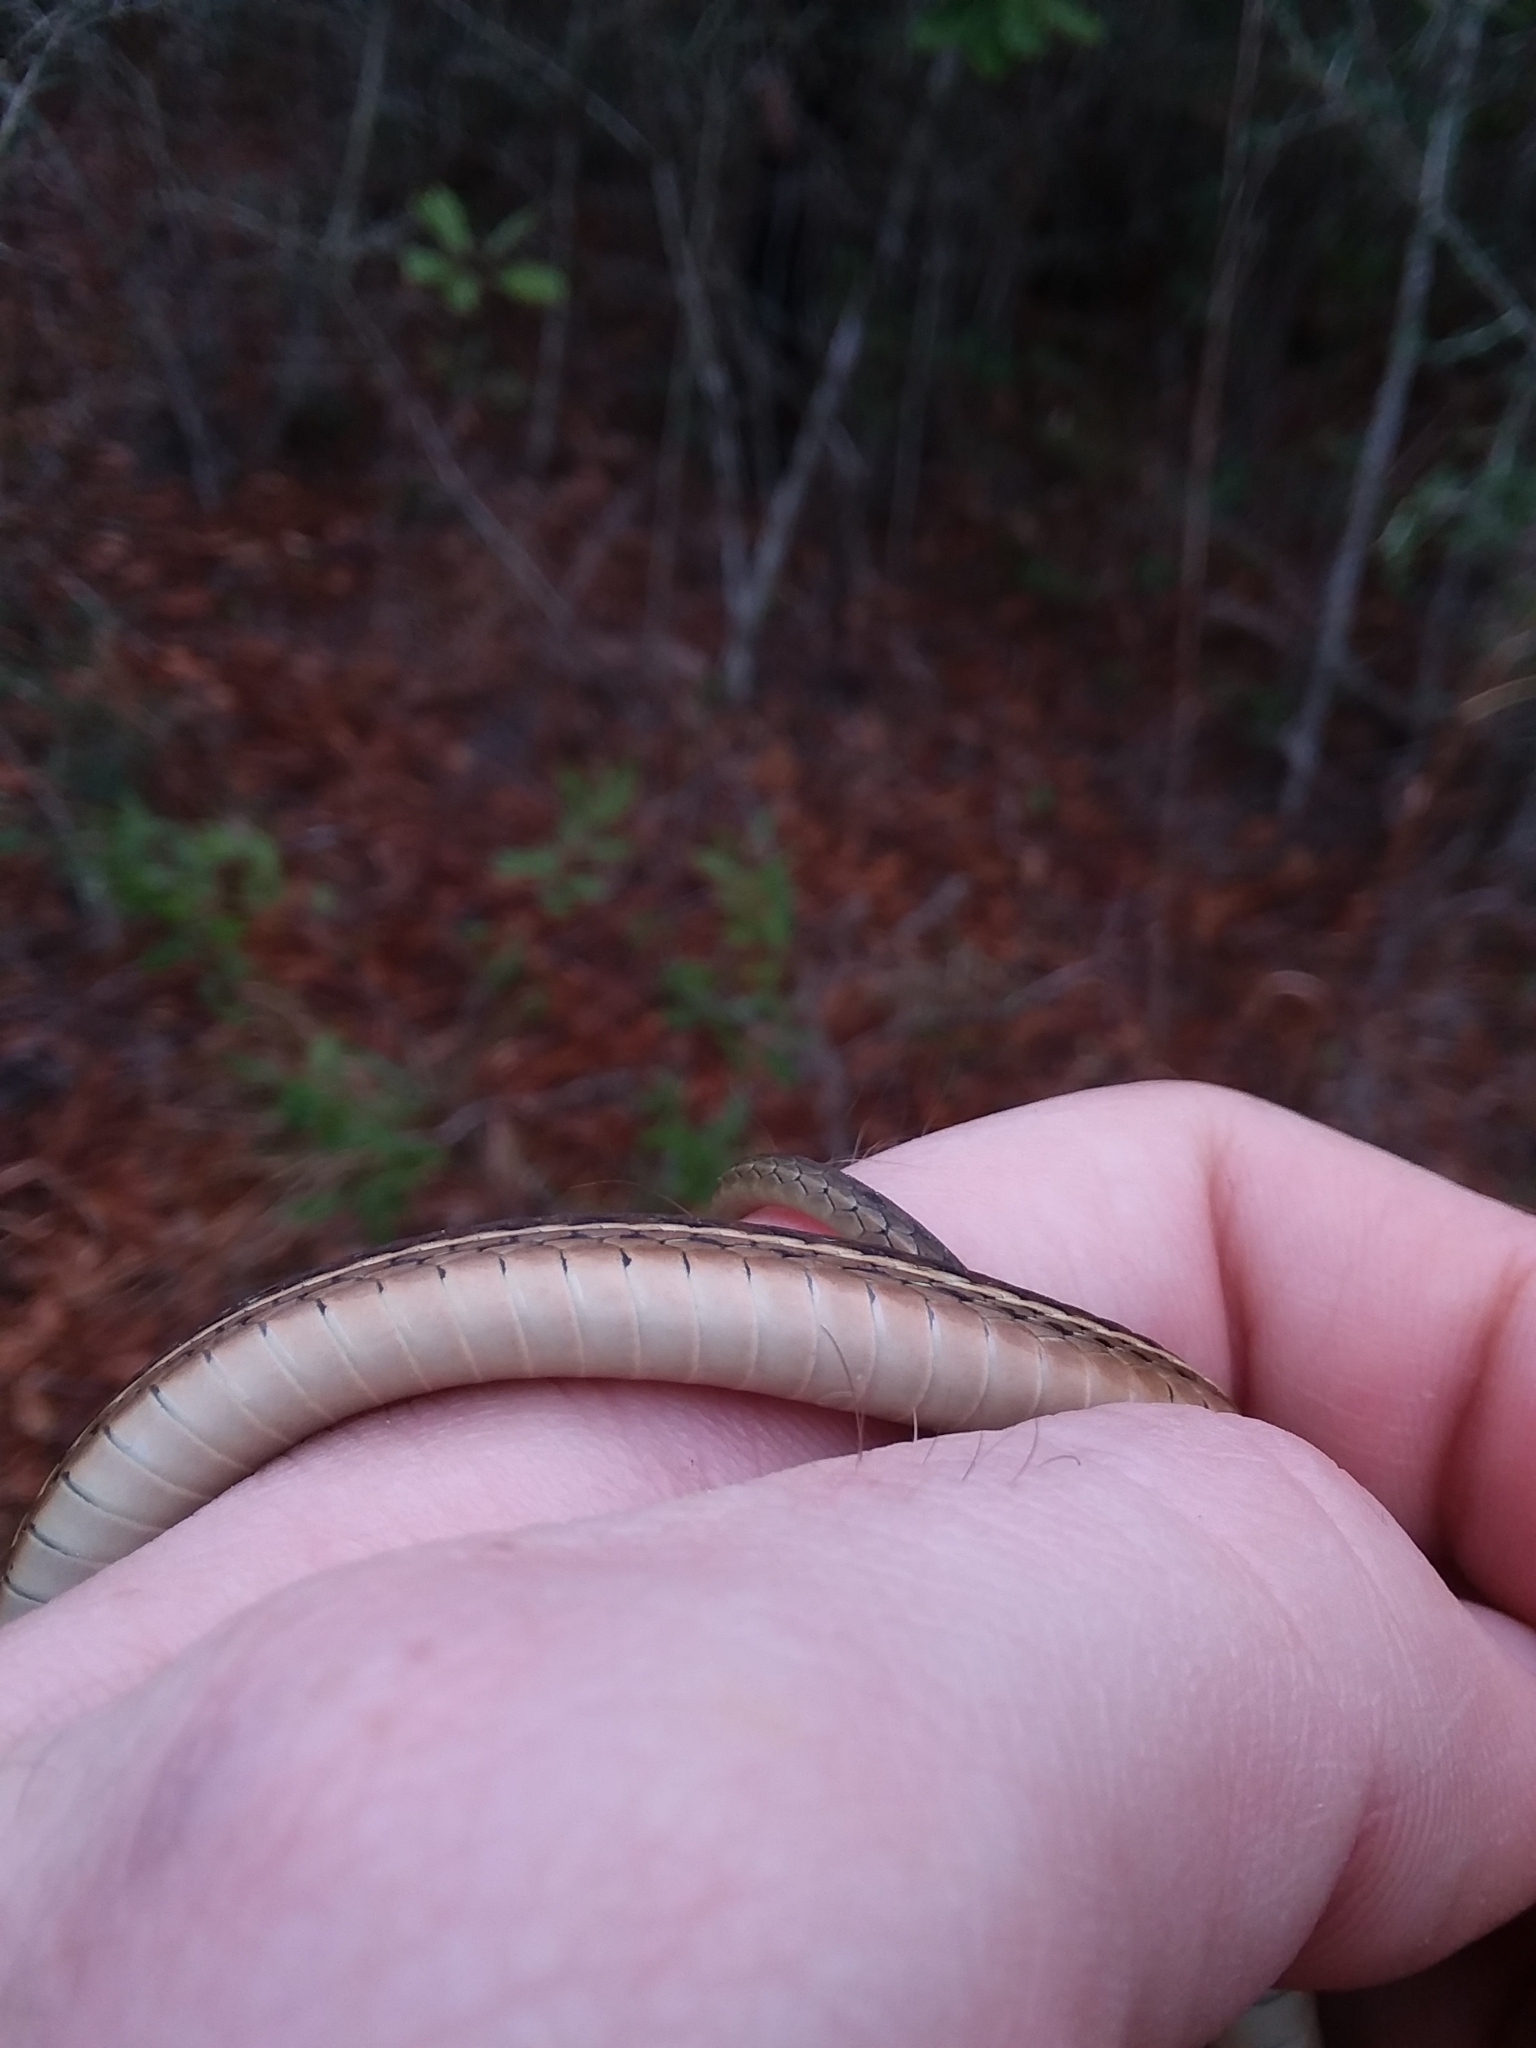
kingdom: Animalia
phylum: Chordata
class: Squamata
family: Colubridae
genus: Thamnophis
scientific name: Thamnophis saurita
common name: Eastern ribbonsnake
